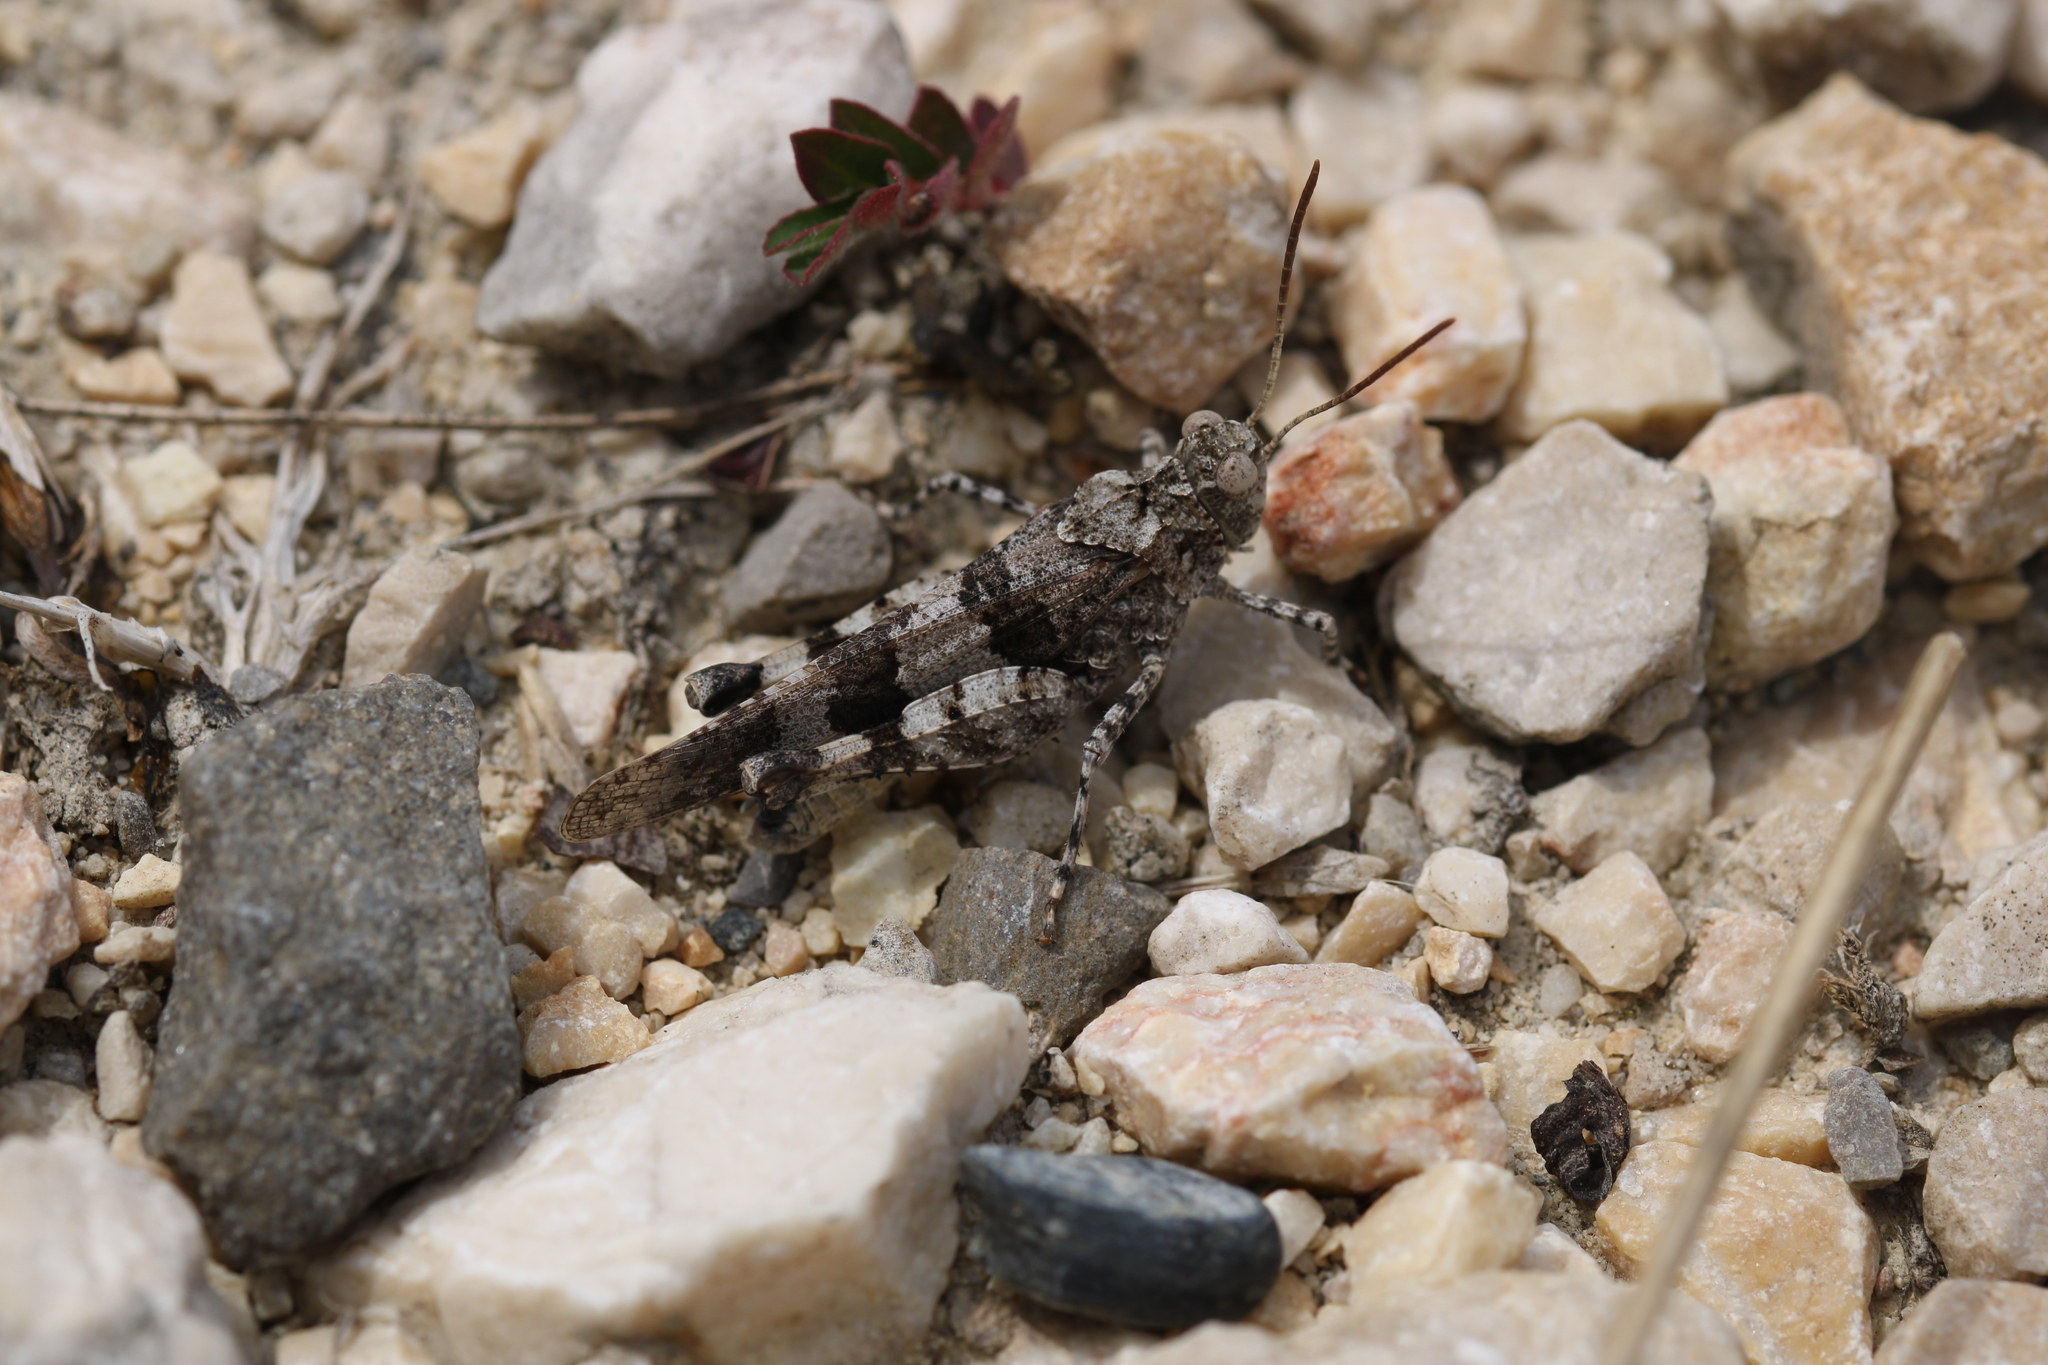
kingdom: Animalia
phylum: Arthropoda
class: Insecta
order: Orthoptera
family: Acrididae
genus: Oedipoda
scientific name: Oedipoda caerulescens
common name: Blue-winged grasshopper
